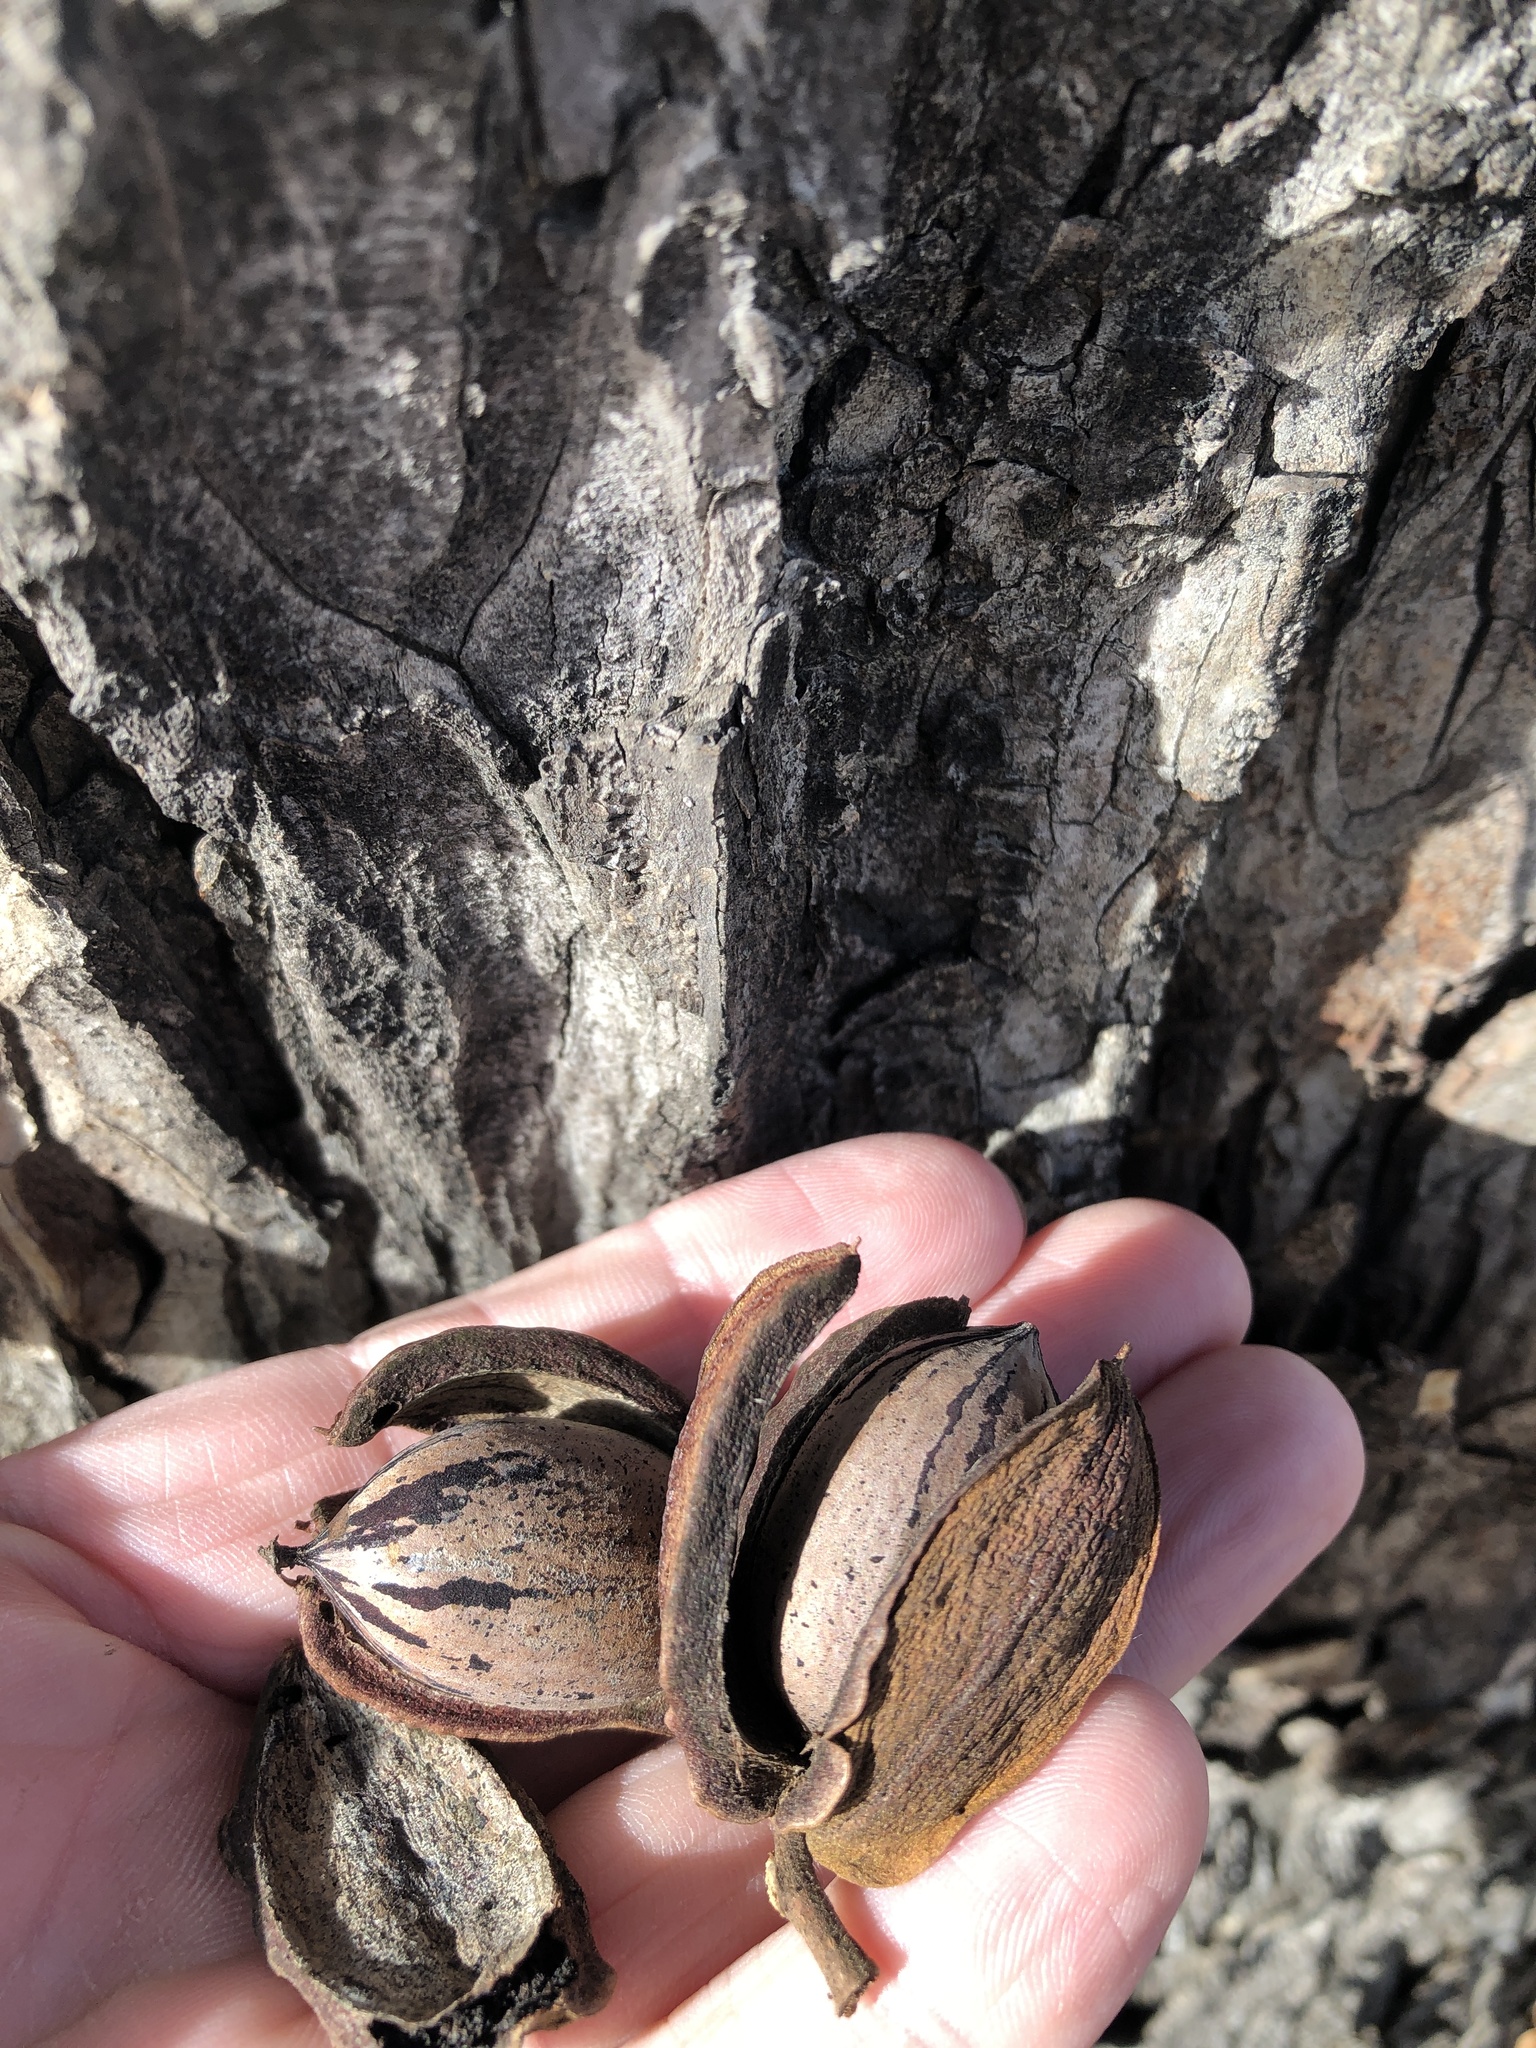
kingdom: Plantae
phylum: Tracheophyta
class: Magnoliopsida
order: Fagales
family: Juglandaceae
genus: Carya
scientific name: Carya illinoinensis
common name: Pecan
